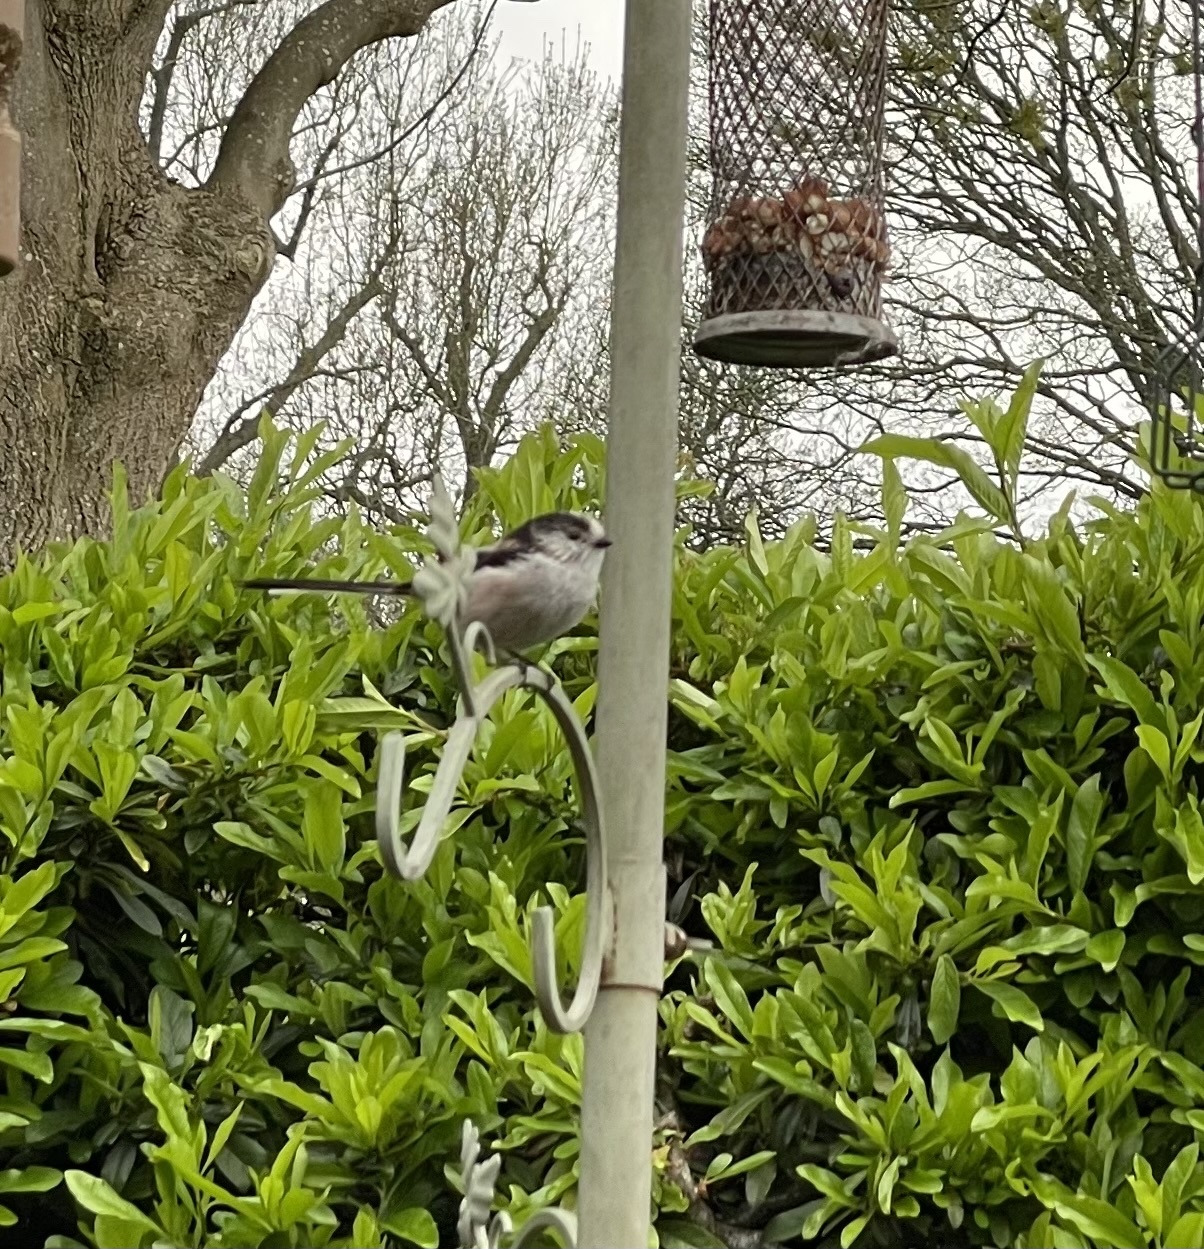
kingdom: Animalia
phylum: Chordata
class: Aves
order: Passeriformes
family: Aegithalidae
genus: Aegithalos
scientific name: Aegithalos caudatus
